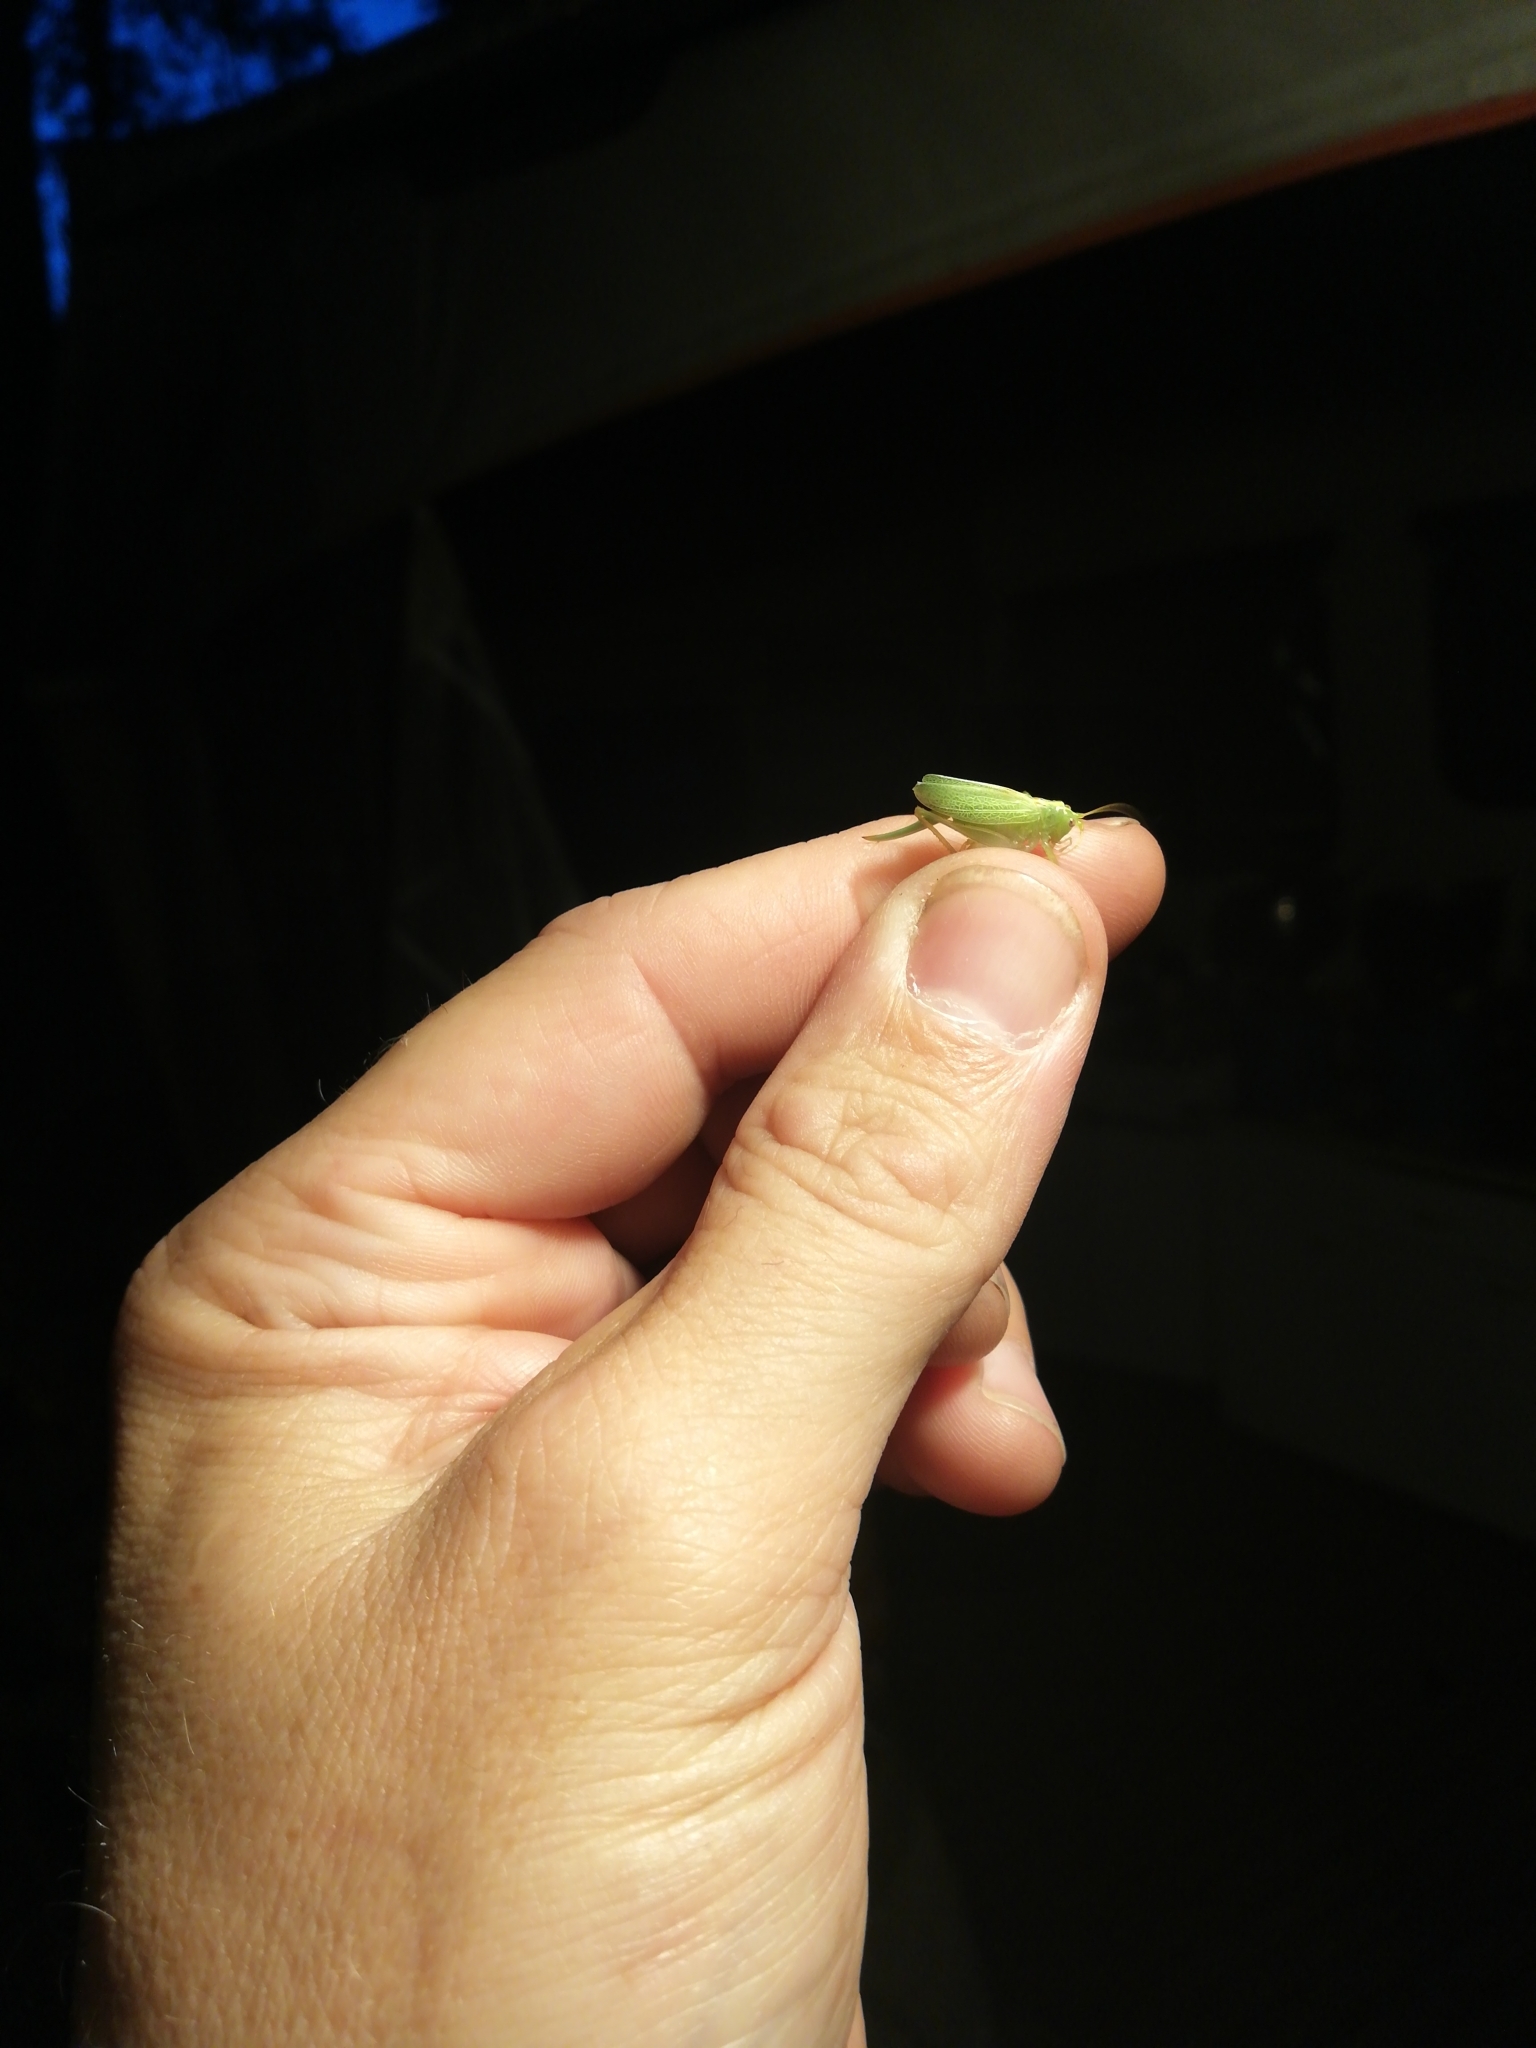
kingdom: Animalia
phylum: Arthropoda
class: Insecta
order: Orthoptera
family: Tettigoniidae
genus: Meconema
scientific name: Meconema thalassinum
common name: Oak bush-cricket
